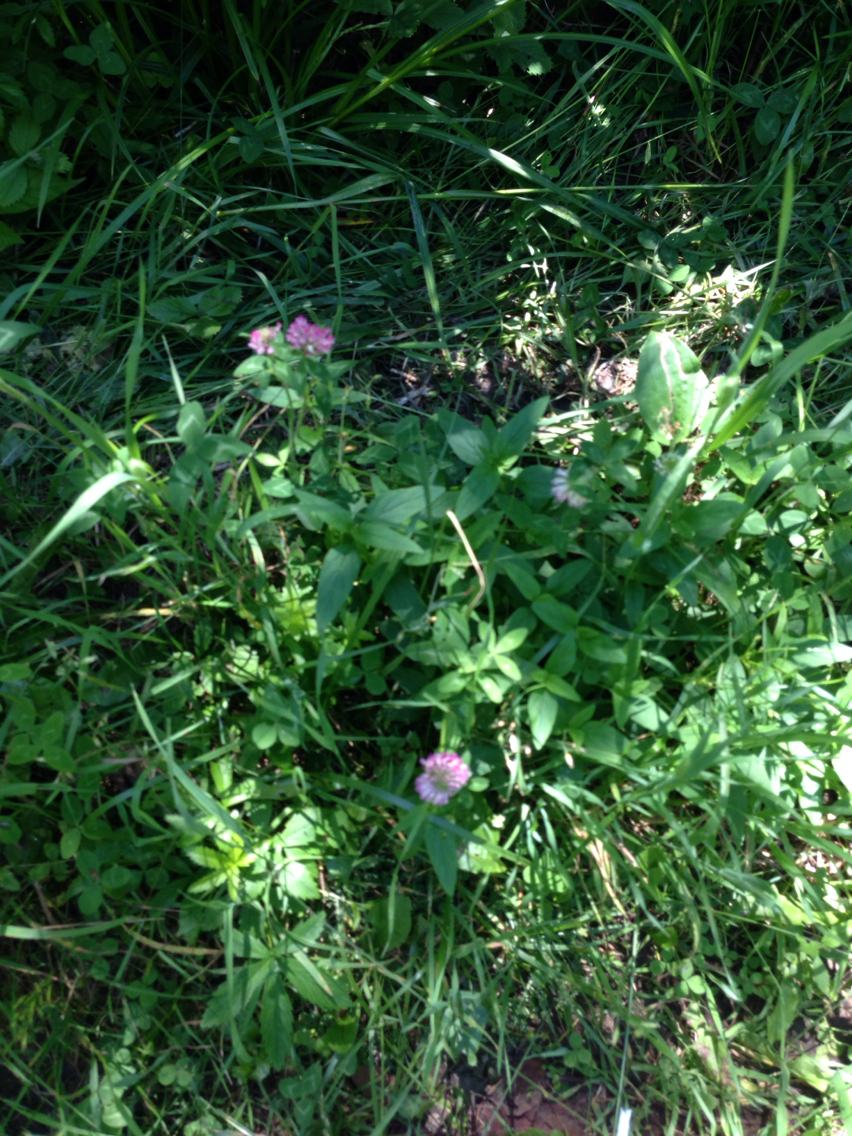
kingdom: Plantae
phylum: Tracheophyta
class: Magnoliopsida
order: Fabales
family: Fabaceae
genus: Trifolium
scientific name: Trifolium pratense
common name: Red clover
